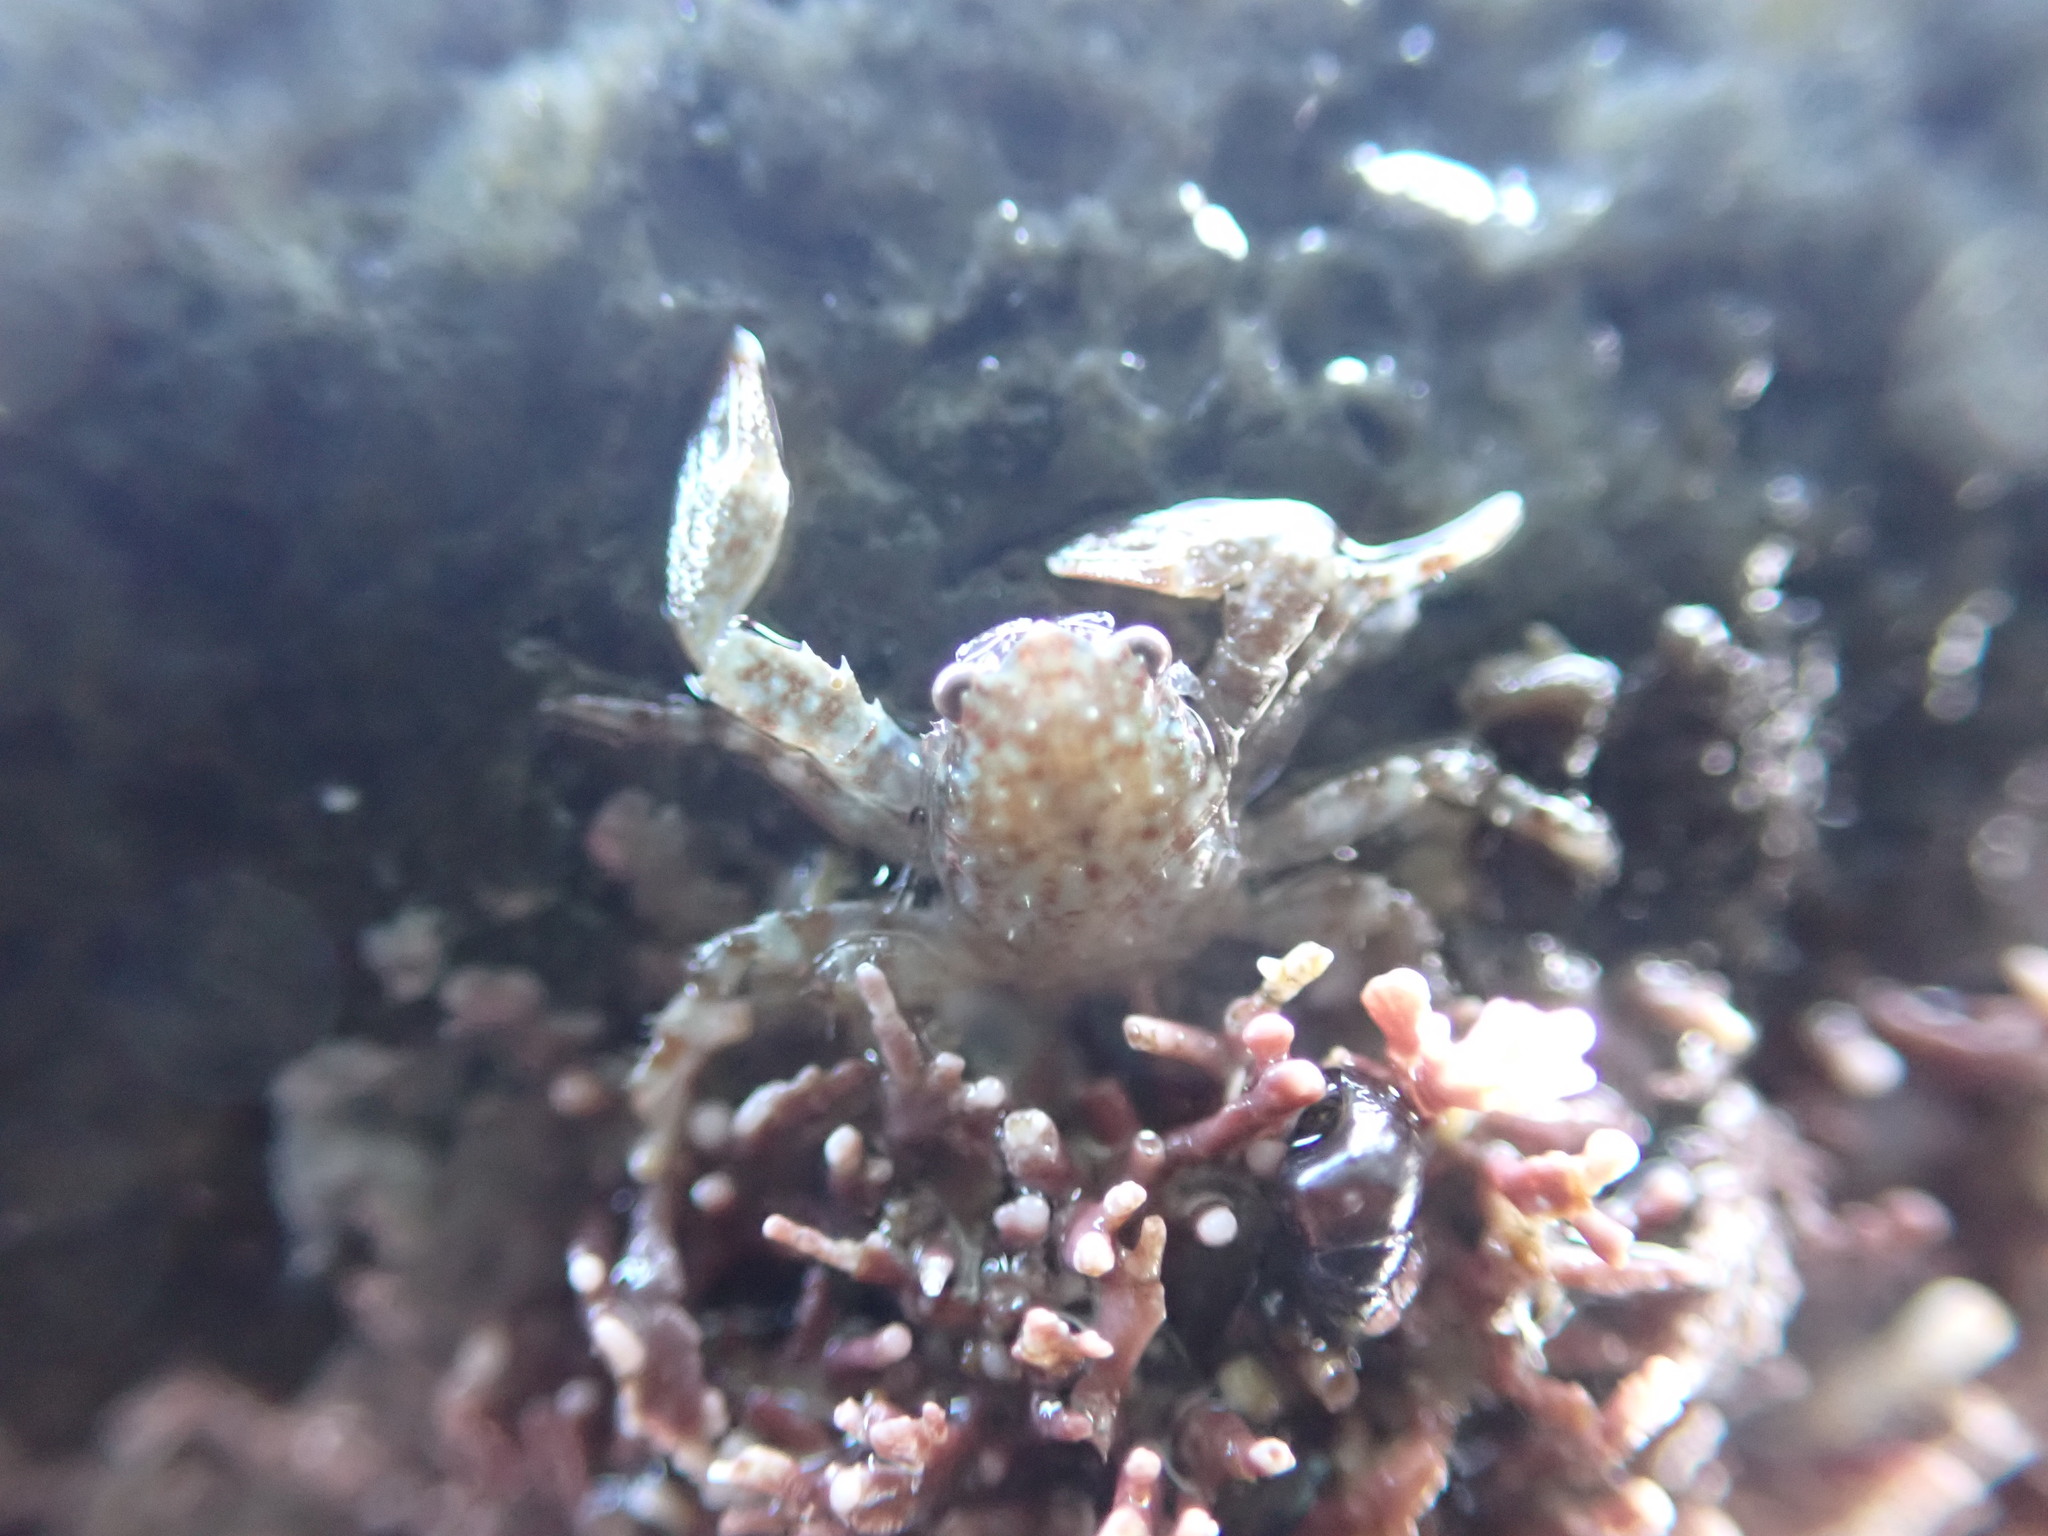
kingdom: Animalia
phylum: Arthropoda
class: Malacostraca
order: Decapoda
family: Porcellanidae
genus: Petrocheles
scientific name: Petrocheles spinosus
